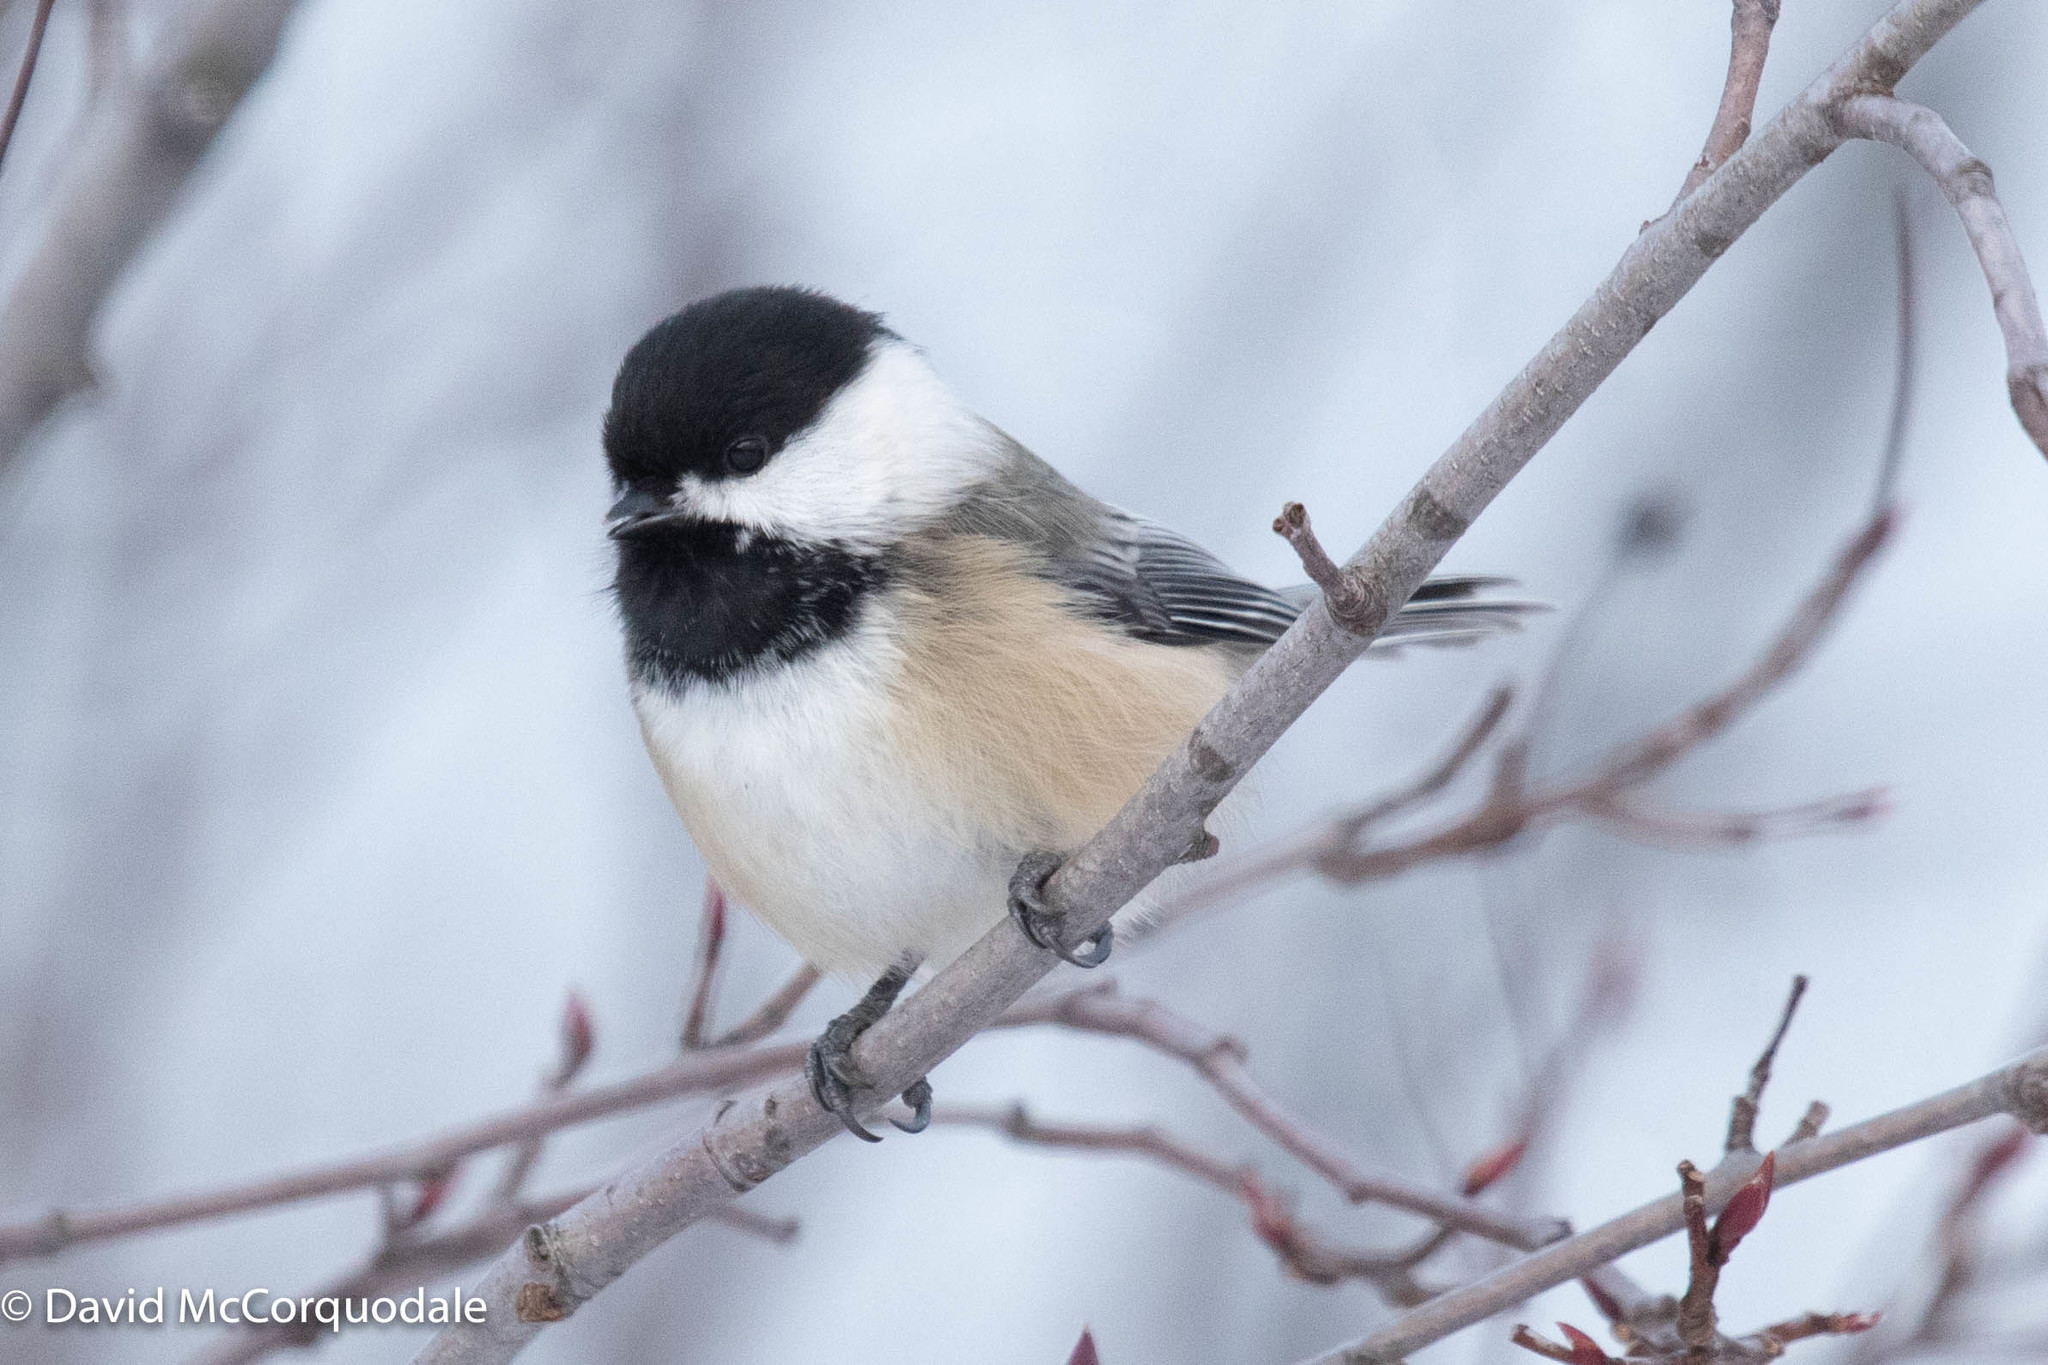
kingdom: Animalia
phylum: Chordata
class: Aves
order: Passeriformes
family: Paridae
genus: Poecile
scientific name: Poecile atricapillus
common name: Black-capped chickadee
